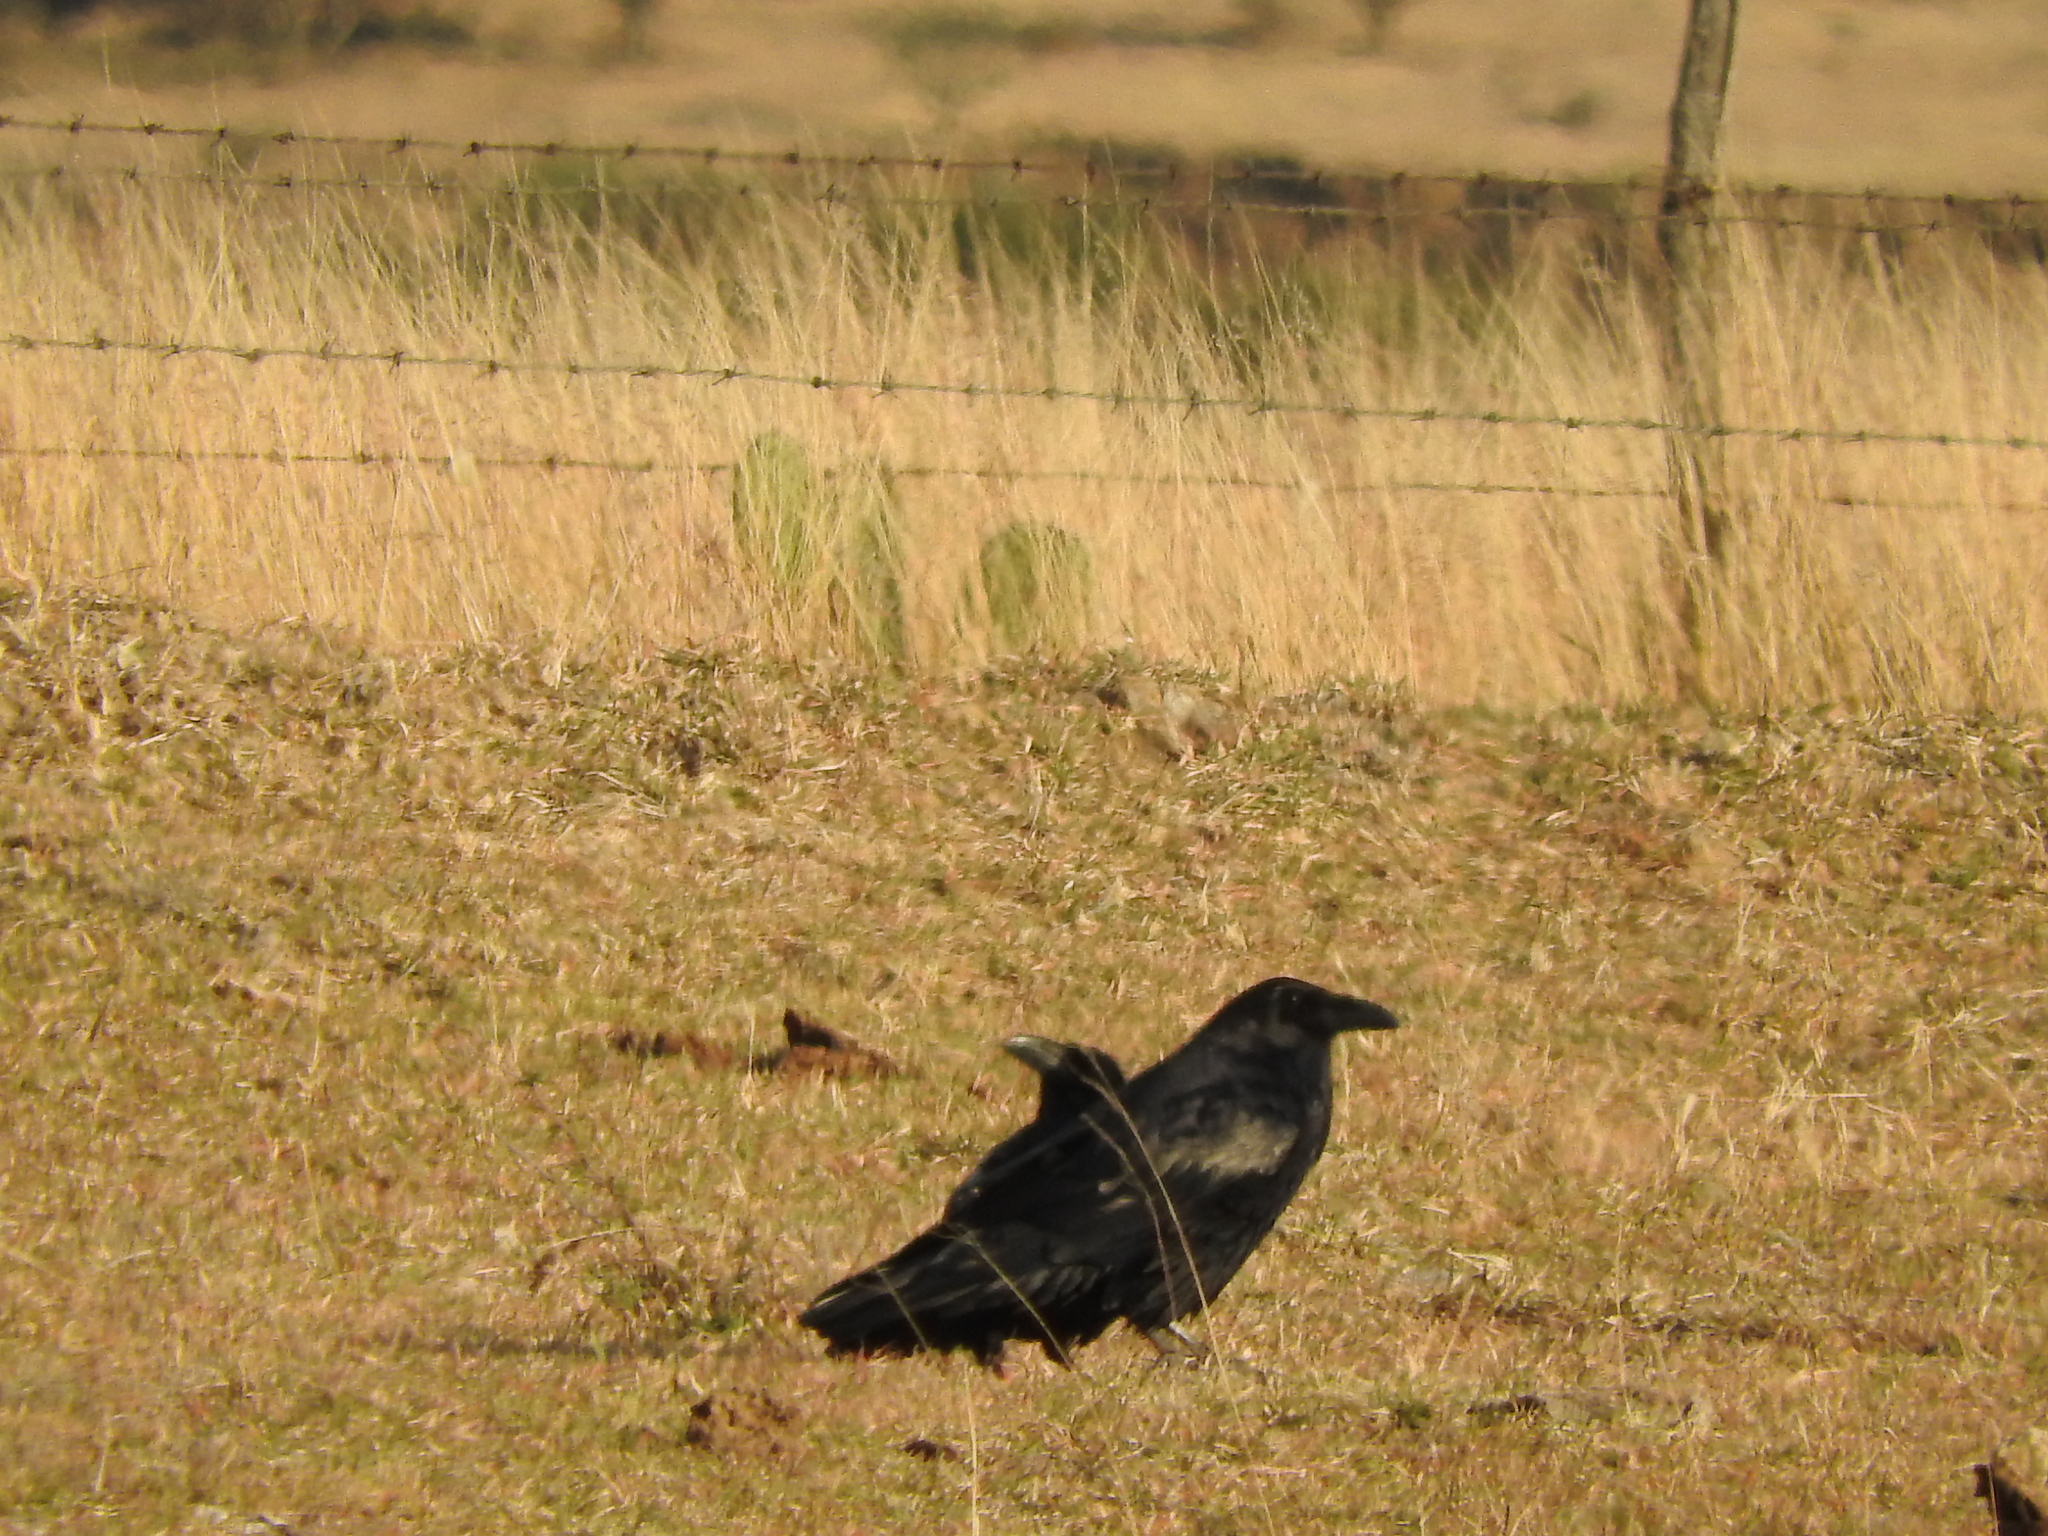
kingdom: Animalia
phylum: Chordata
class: Aves
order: Passeriformes
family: Corvidae
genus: Corvus
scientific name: Corvus corax
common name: Common raven
